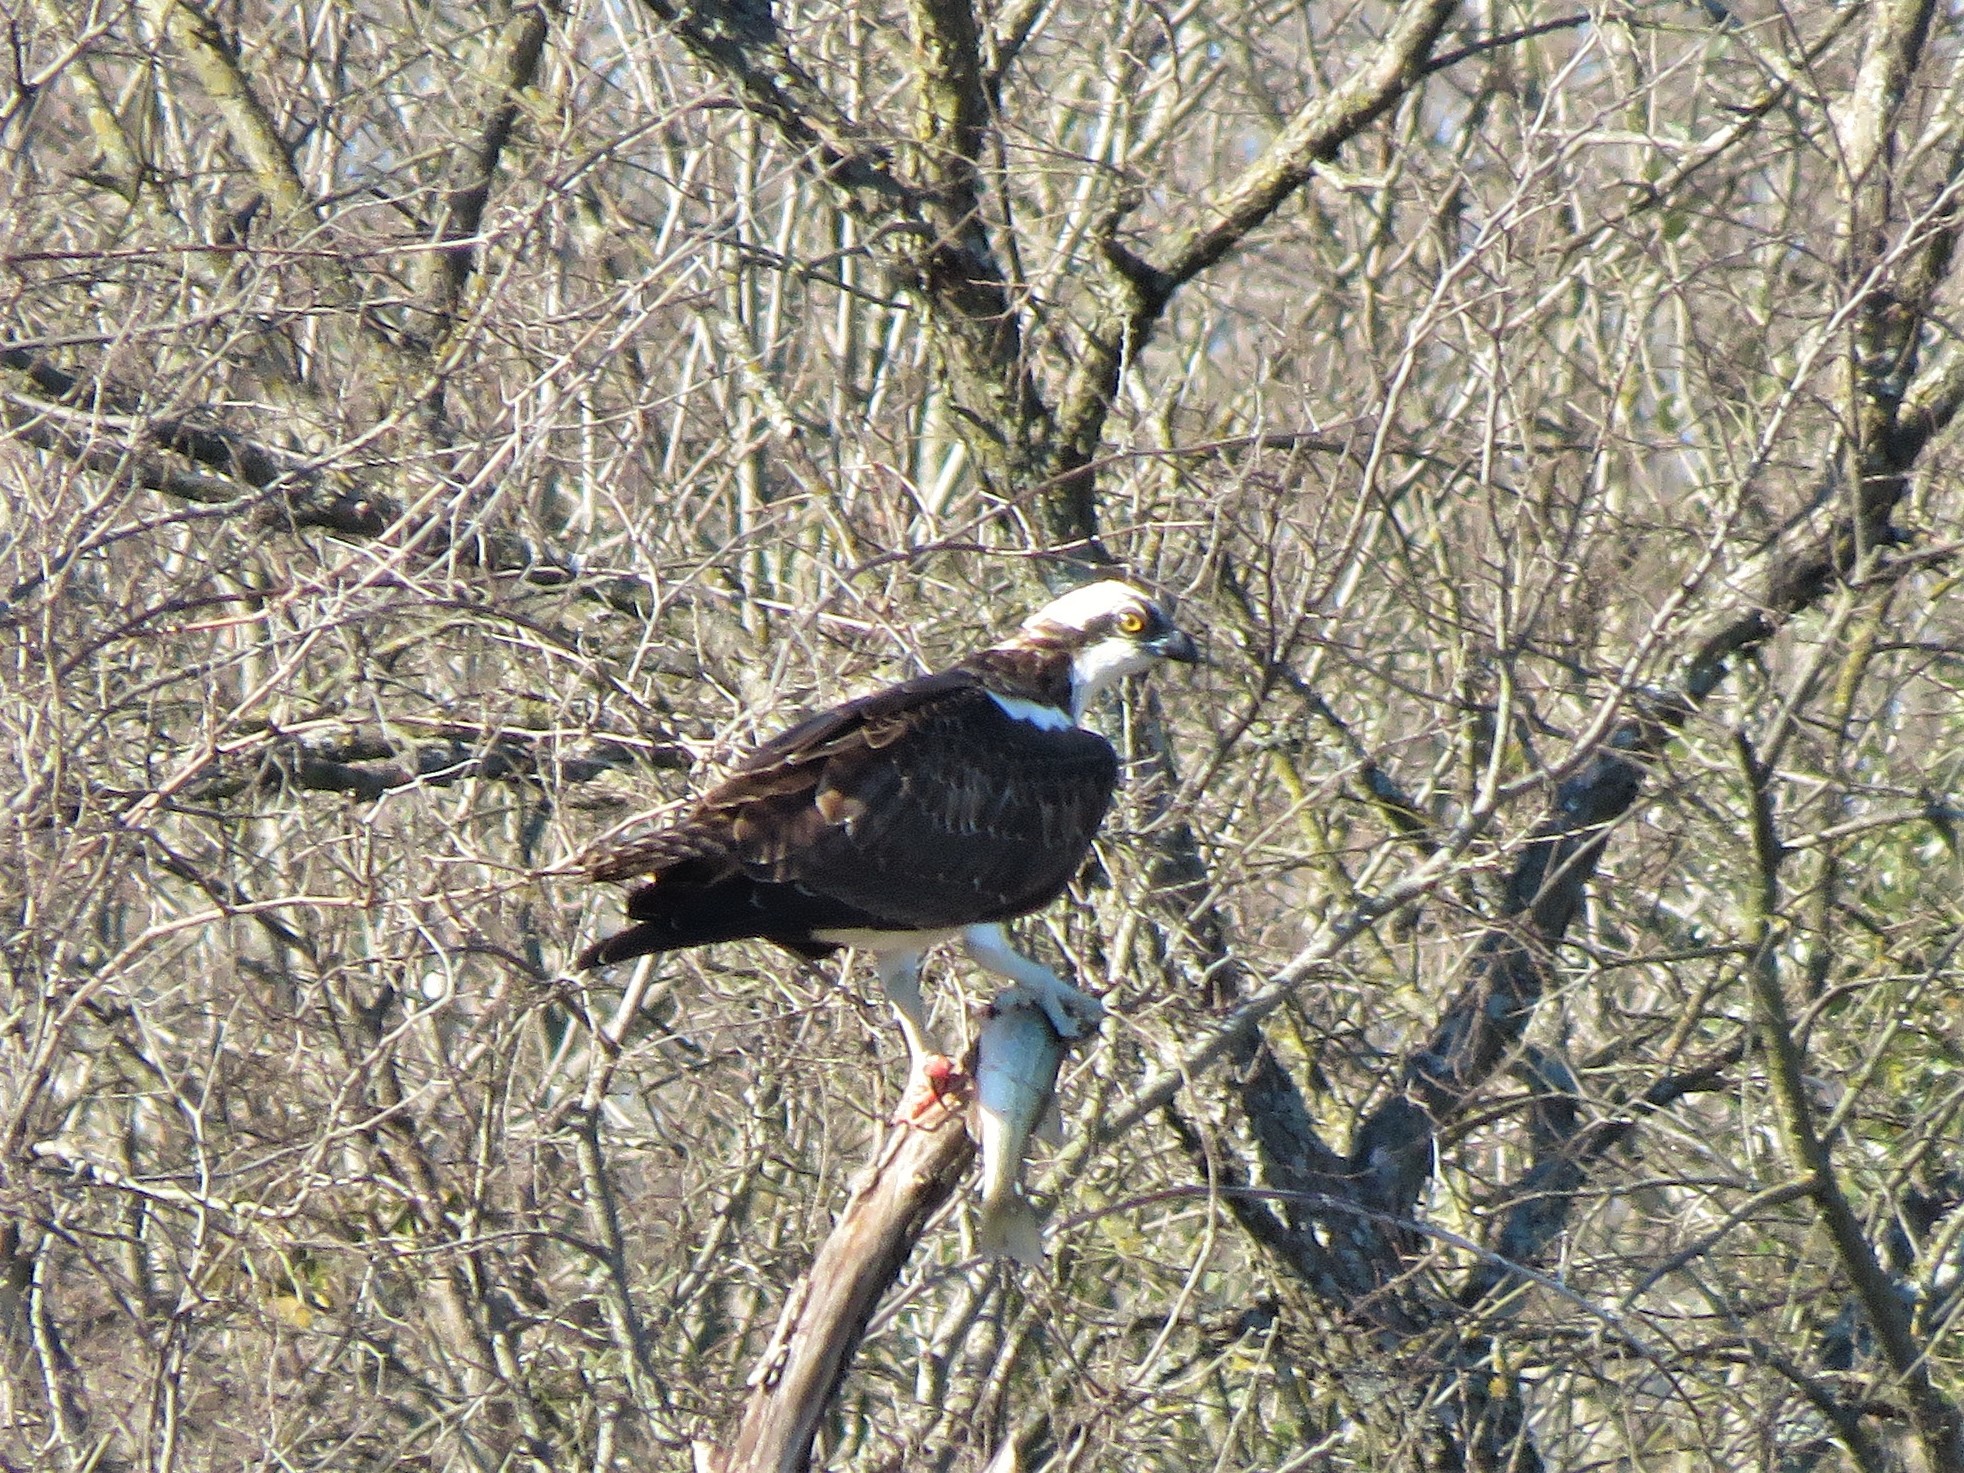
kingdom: Animalia
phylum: Chordata
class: Aves
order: Accipitriformes
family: Pandionidae
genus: Pandion
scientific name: Pandion haliaetus
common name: Osprey
